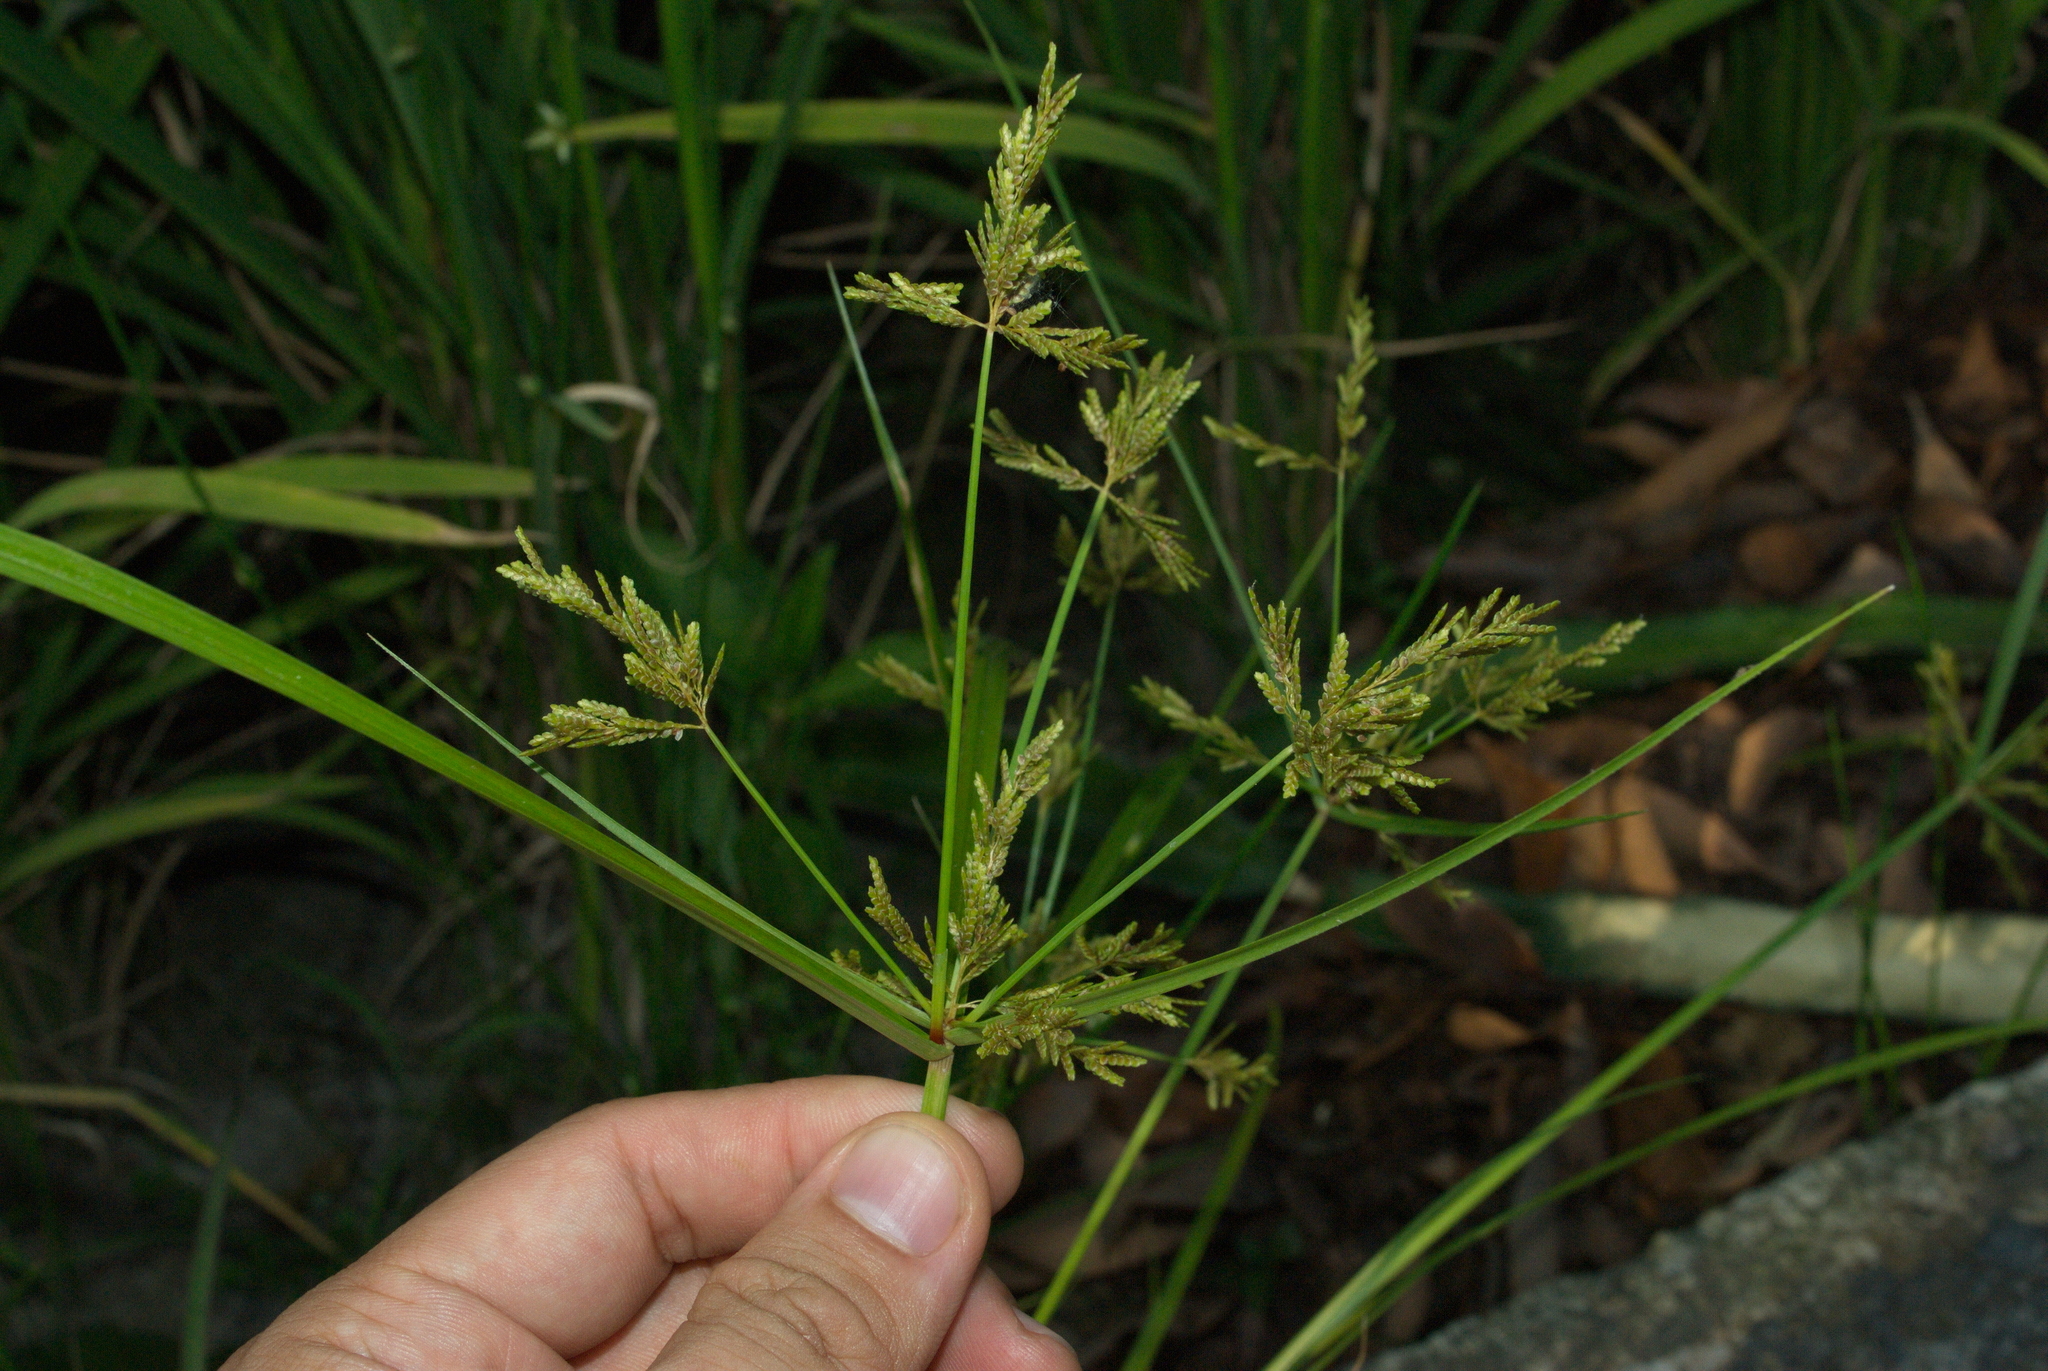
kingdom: Plantae
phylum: Tracheophyta
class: Liliopsida
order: Poales
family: Cyperaceae
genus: Cyperus
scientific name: Cyperus iria
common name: Ricefield flatsedge
